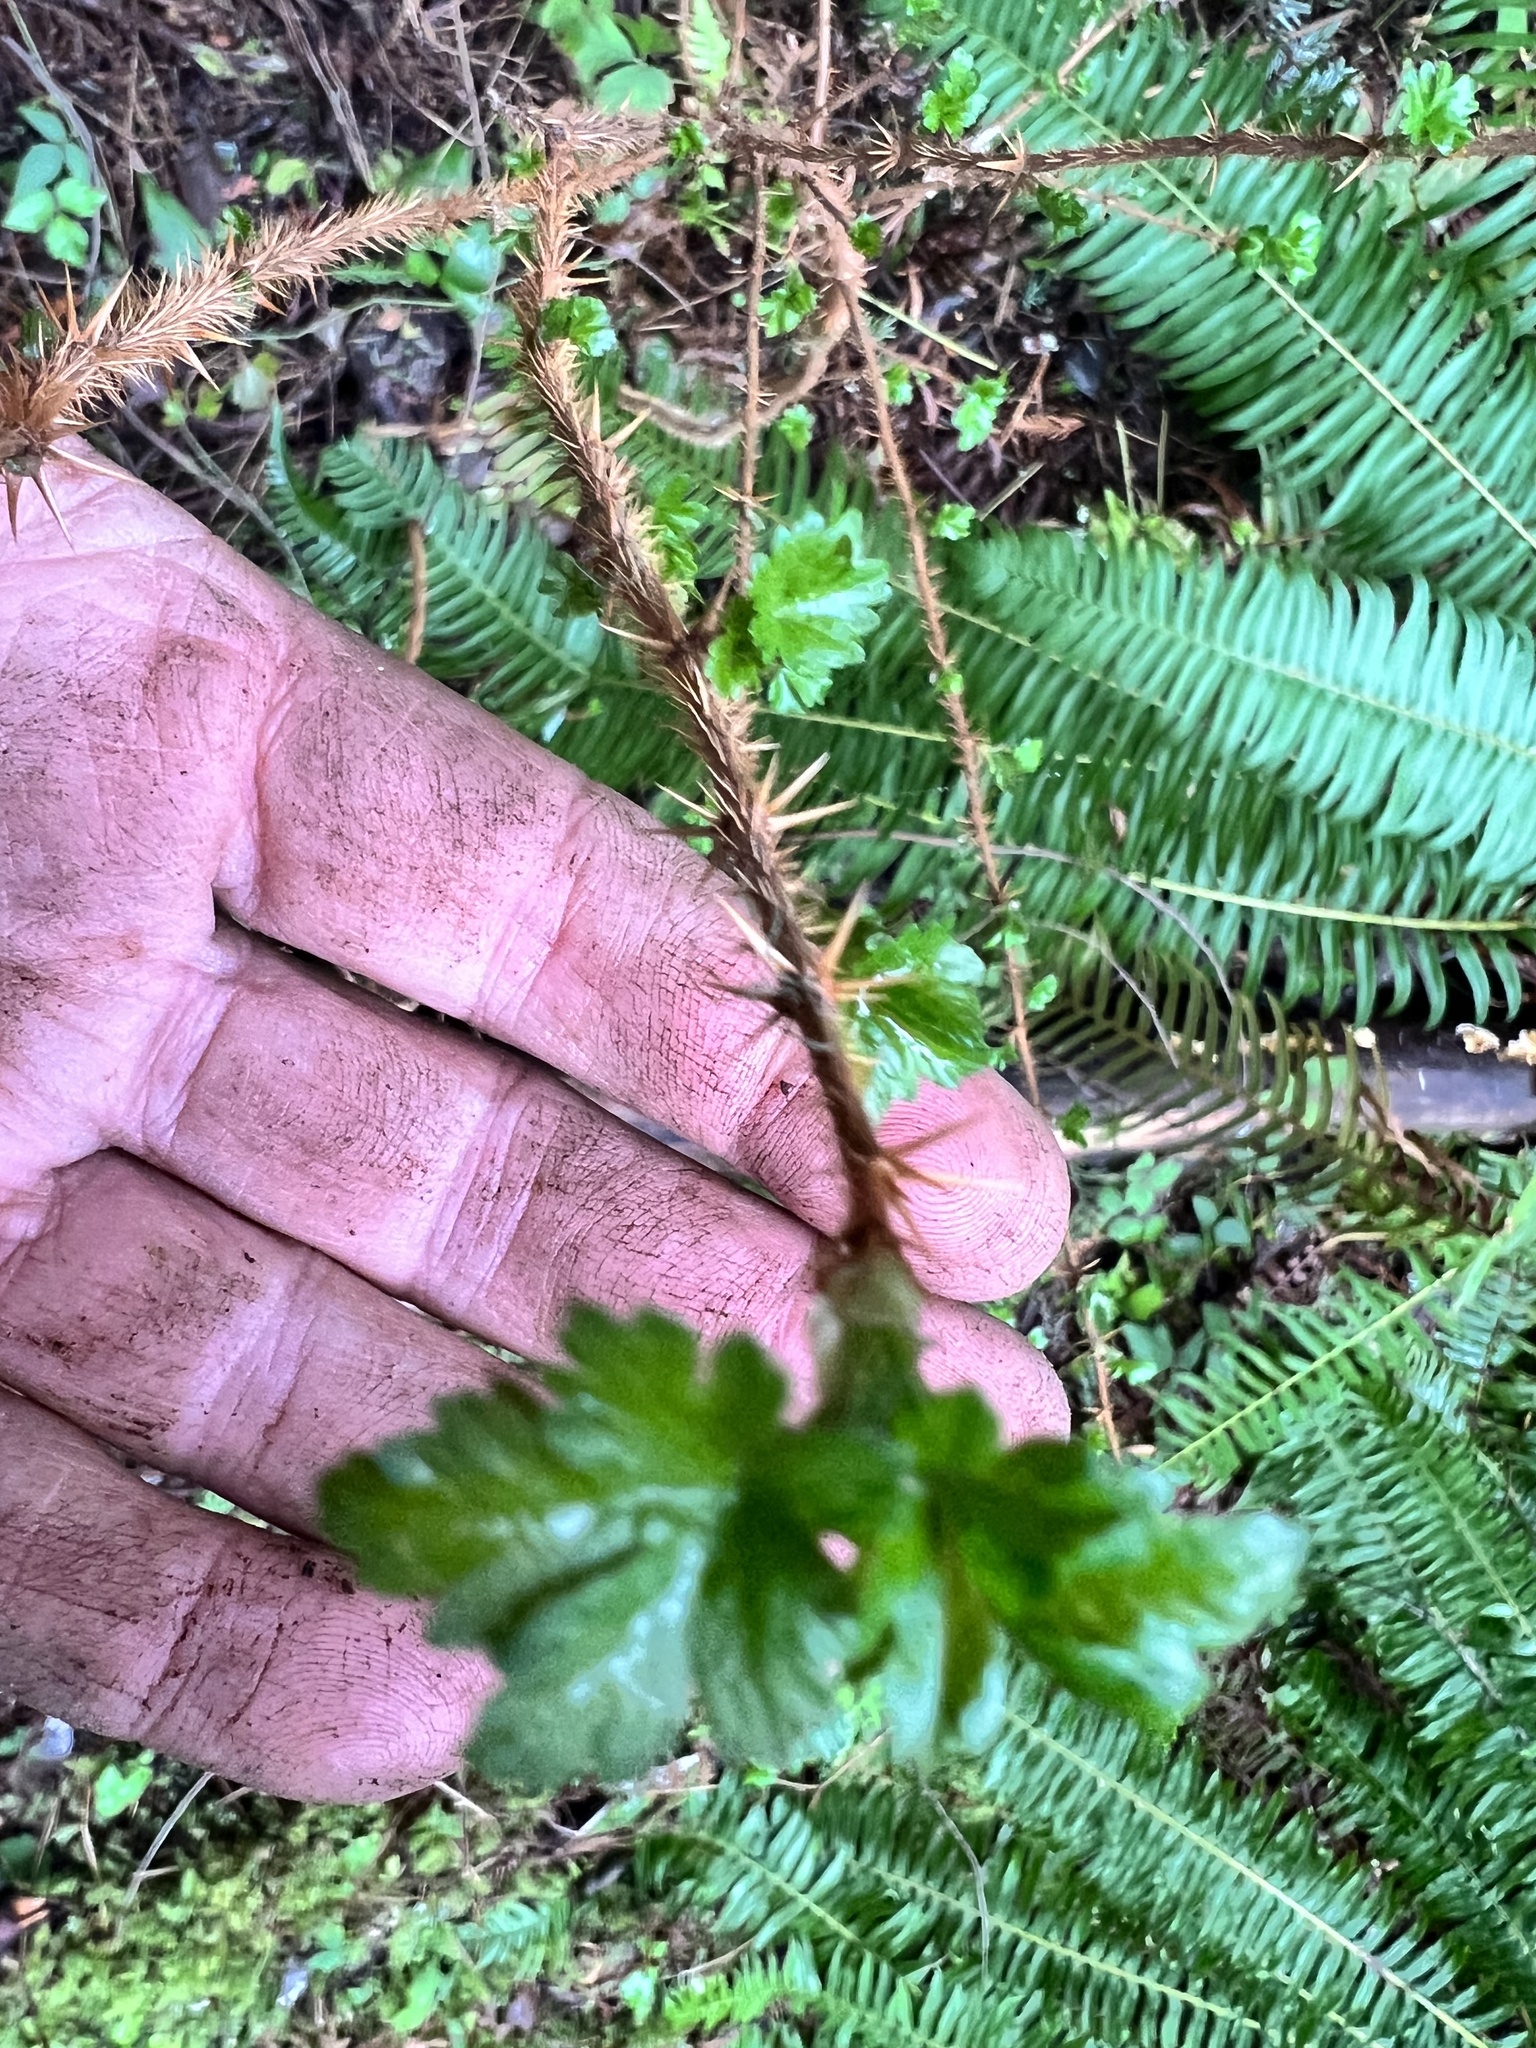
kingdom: Plantae
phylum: Tracheophyta
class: Magnoliopsida
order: Saxifragales
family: Grossulariaceae
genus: Ribes
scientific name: Ribes lacustre
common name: Black gooseberry
